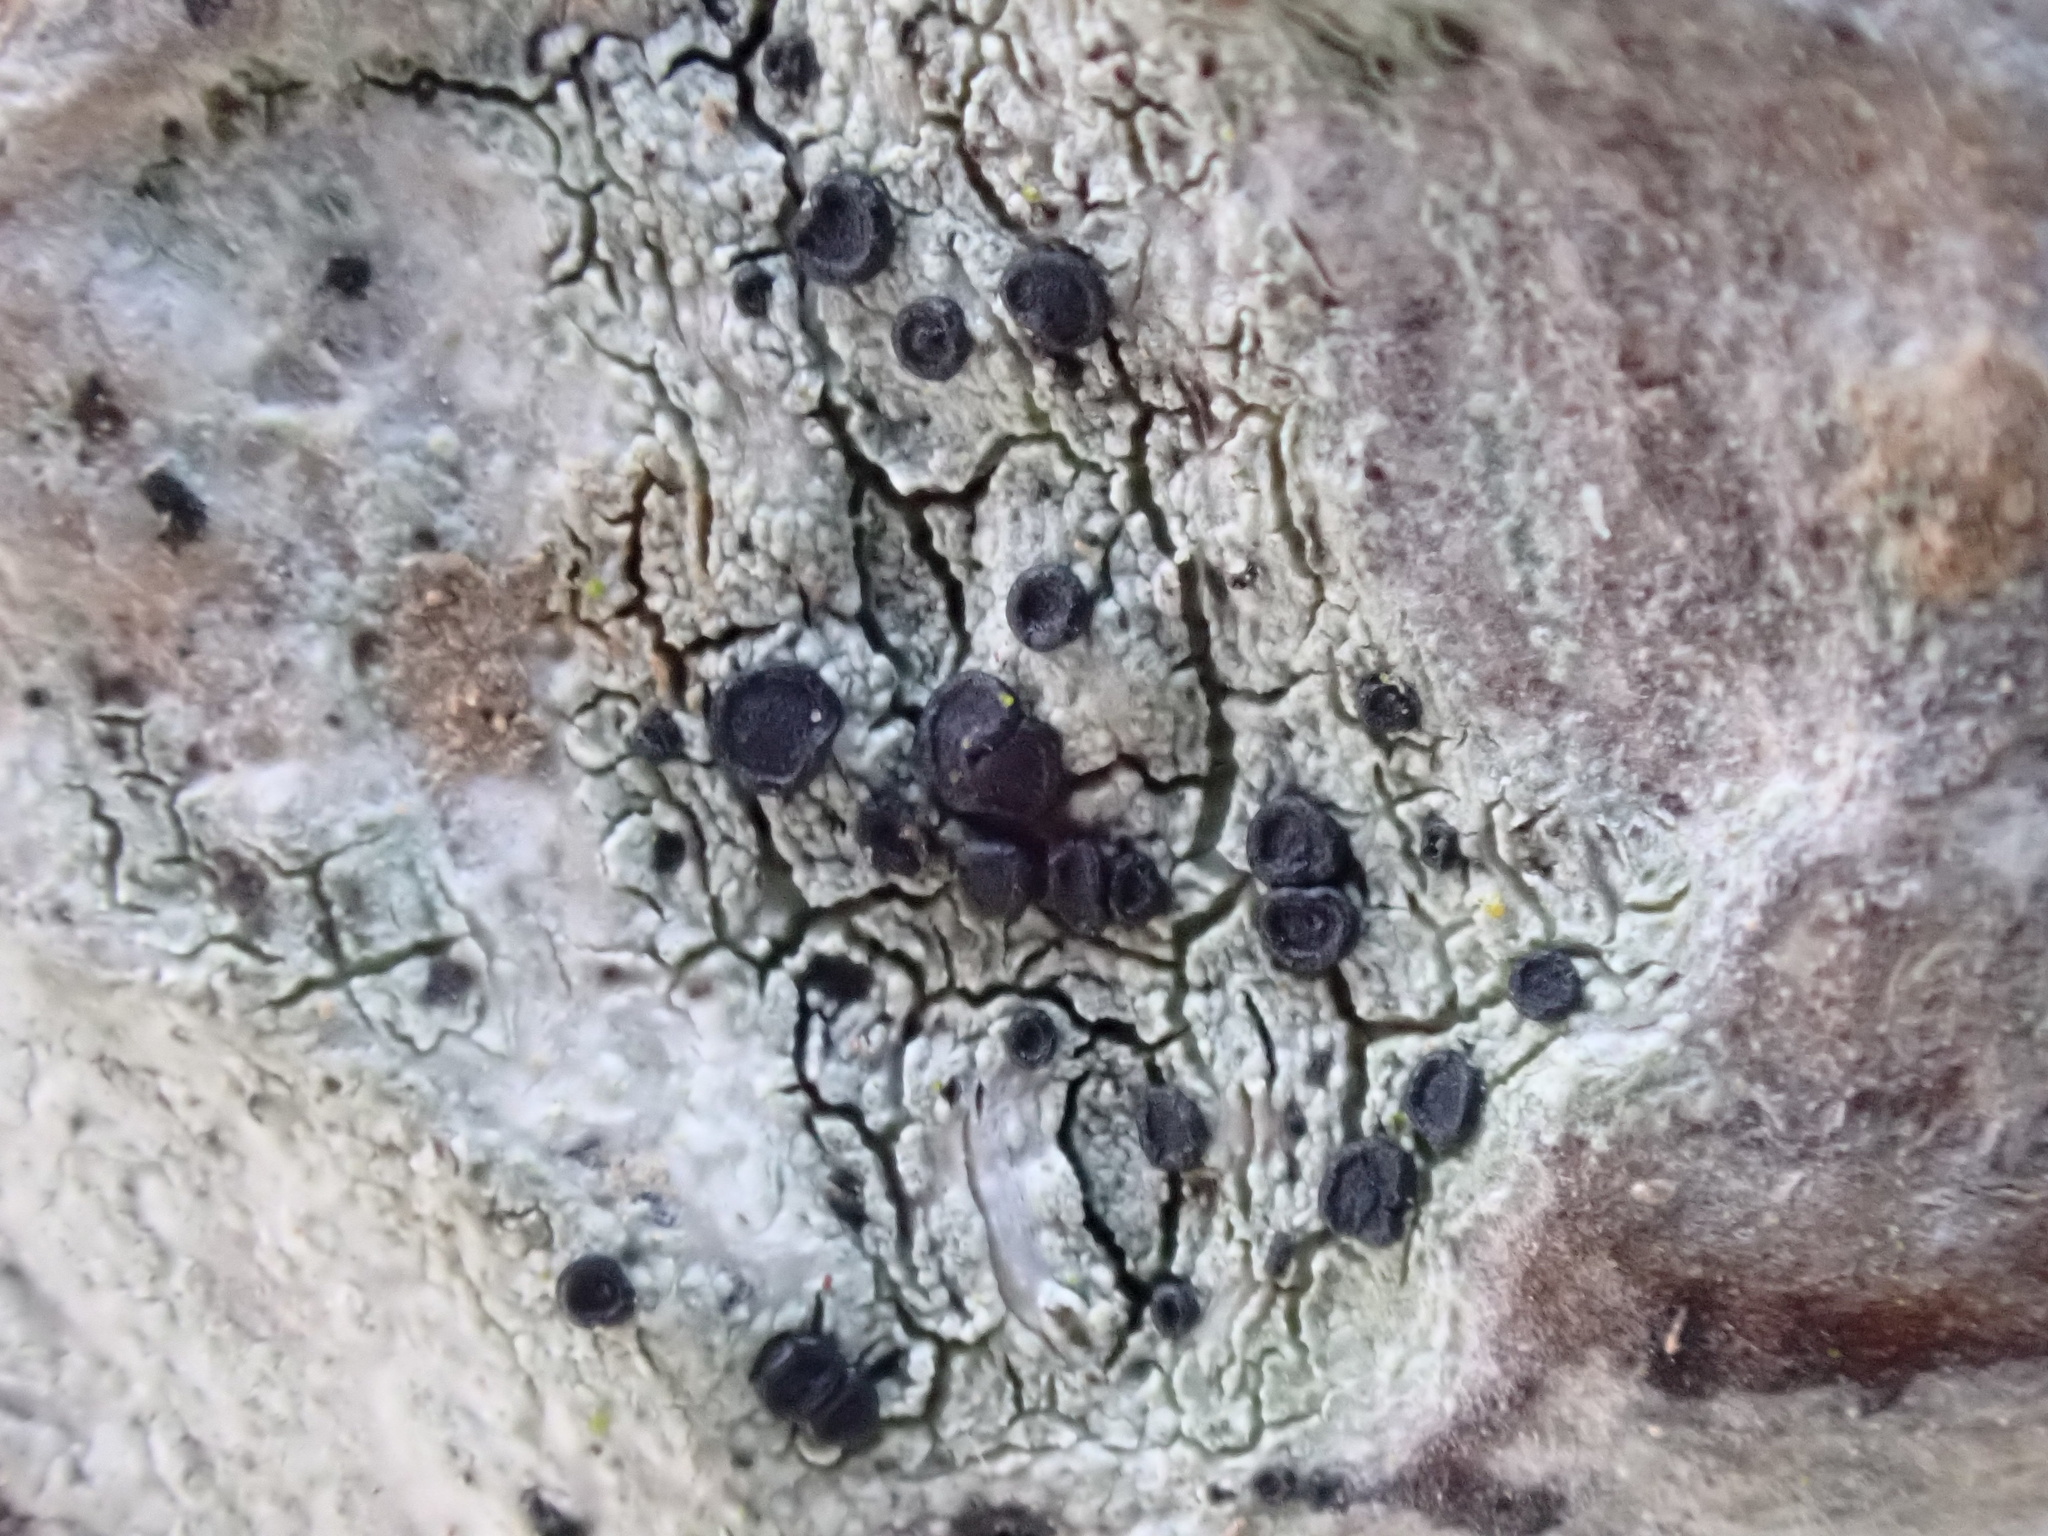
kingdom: Fungi
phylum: Ascomycota
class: Lecanoromycetes
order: Lecanorales
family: Lecanoraceae
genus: Lecidella
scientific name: Lecidella elaeochroma
